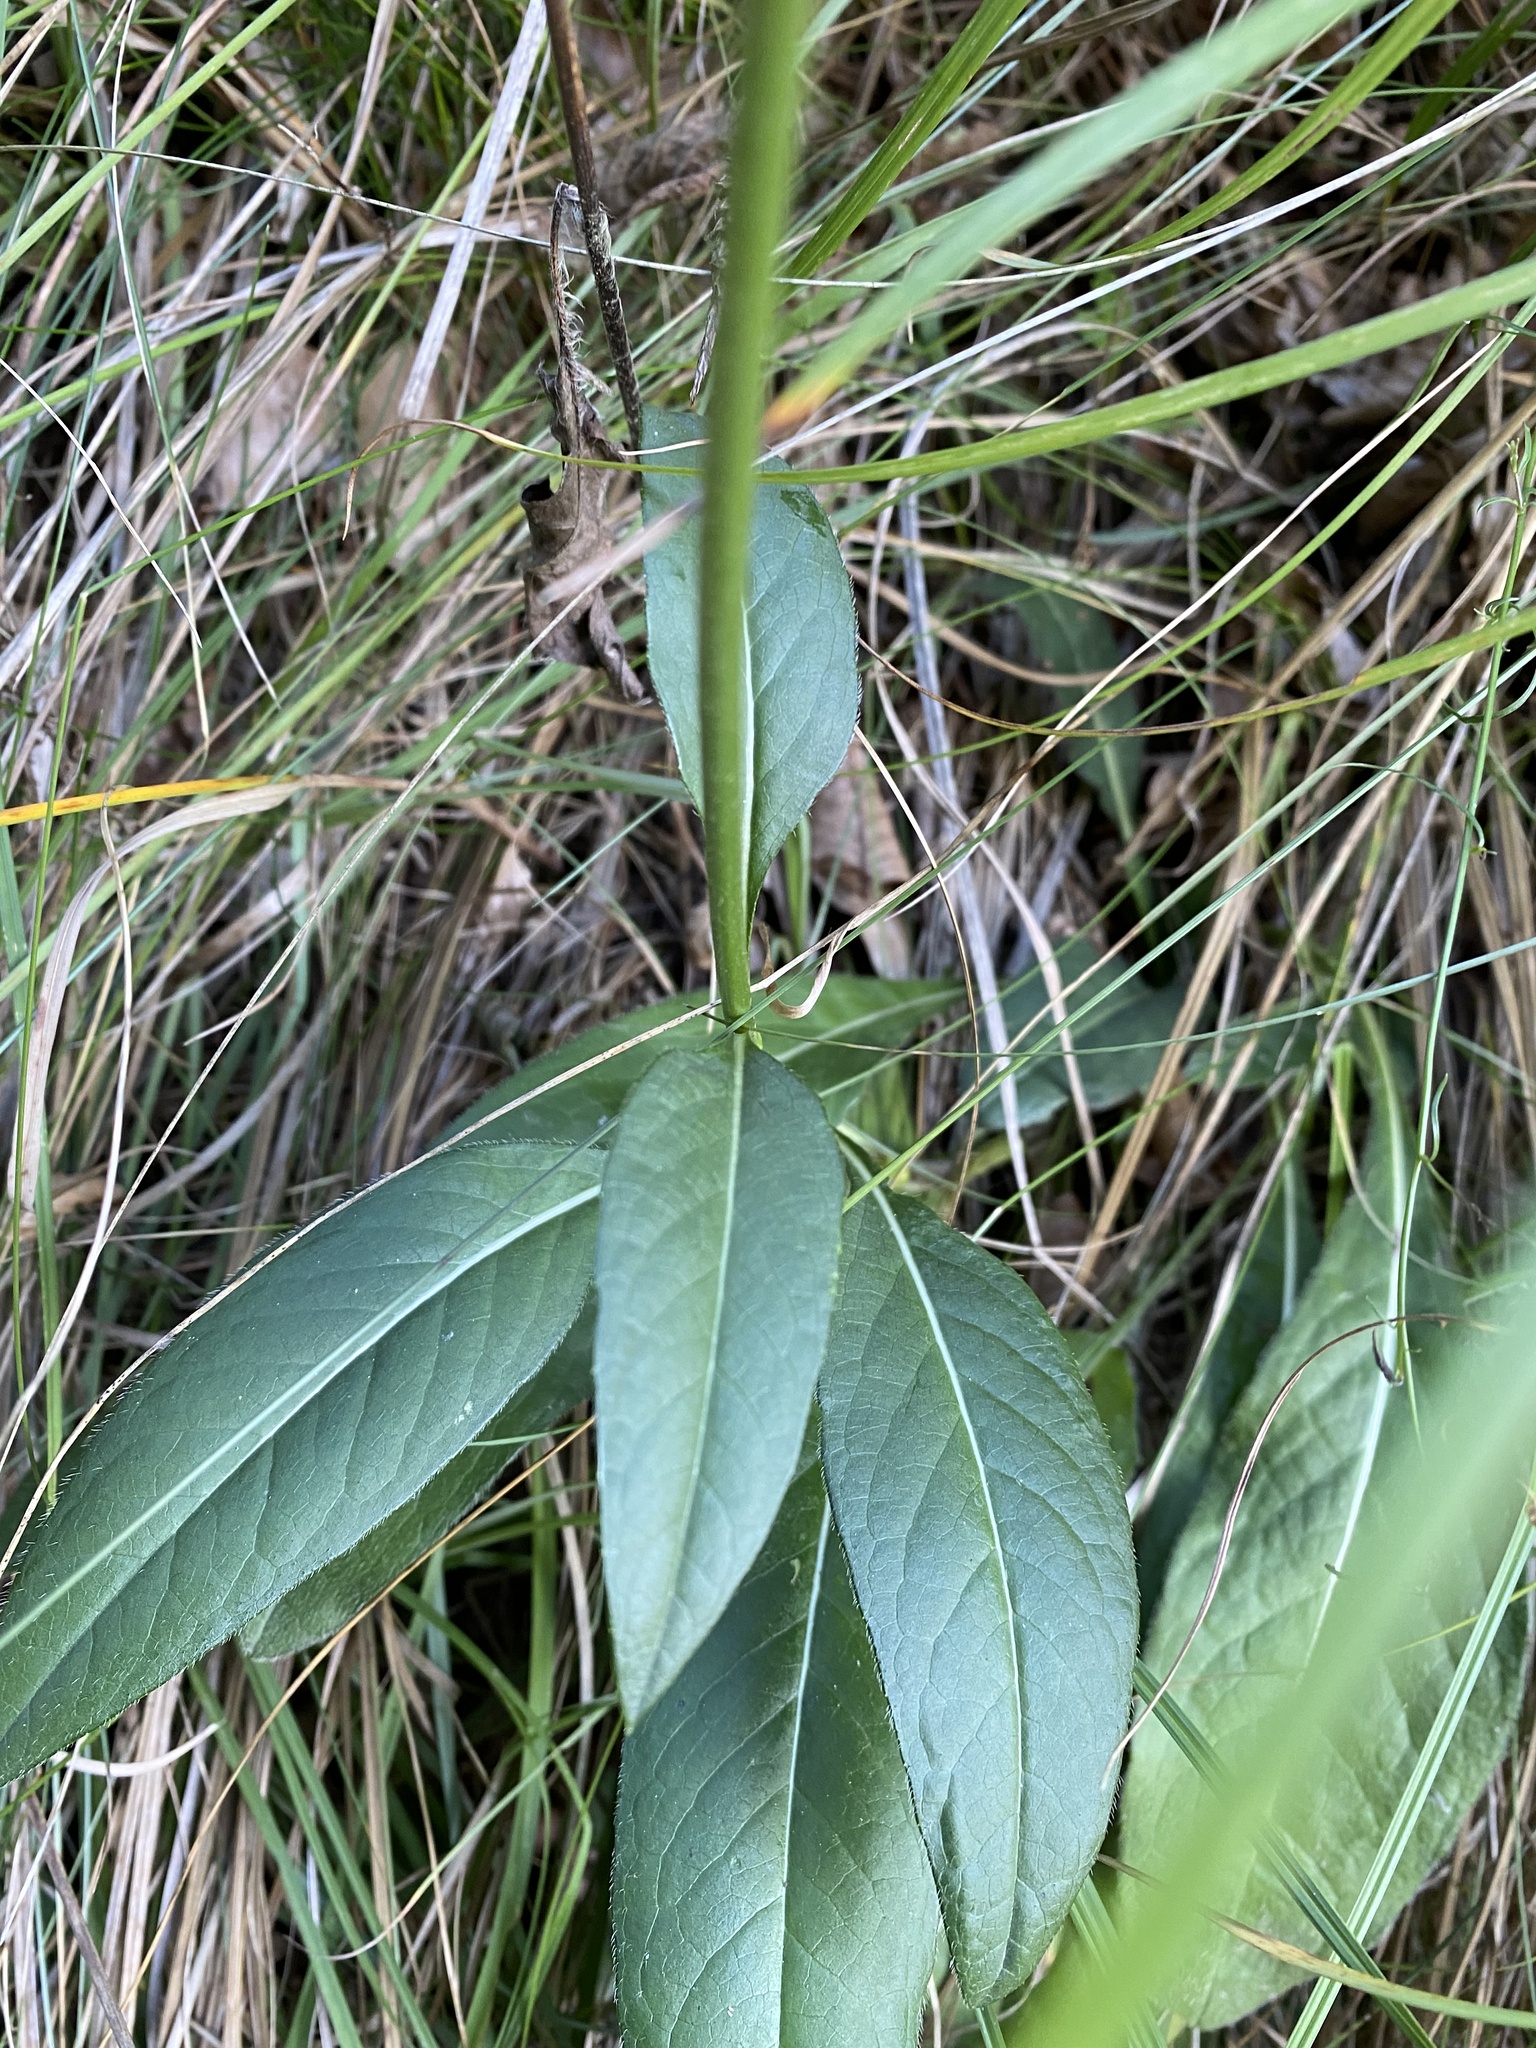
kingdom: Plantae
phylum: Tracheophyta
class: Magnoliopsida
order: Dipsacales
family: Caprifoliaceae
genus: Succisa
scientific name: Succisa pratensis
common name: Devil's-bit
